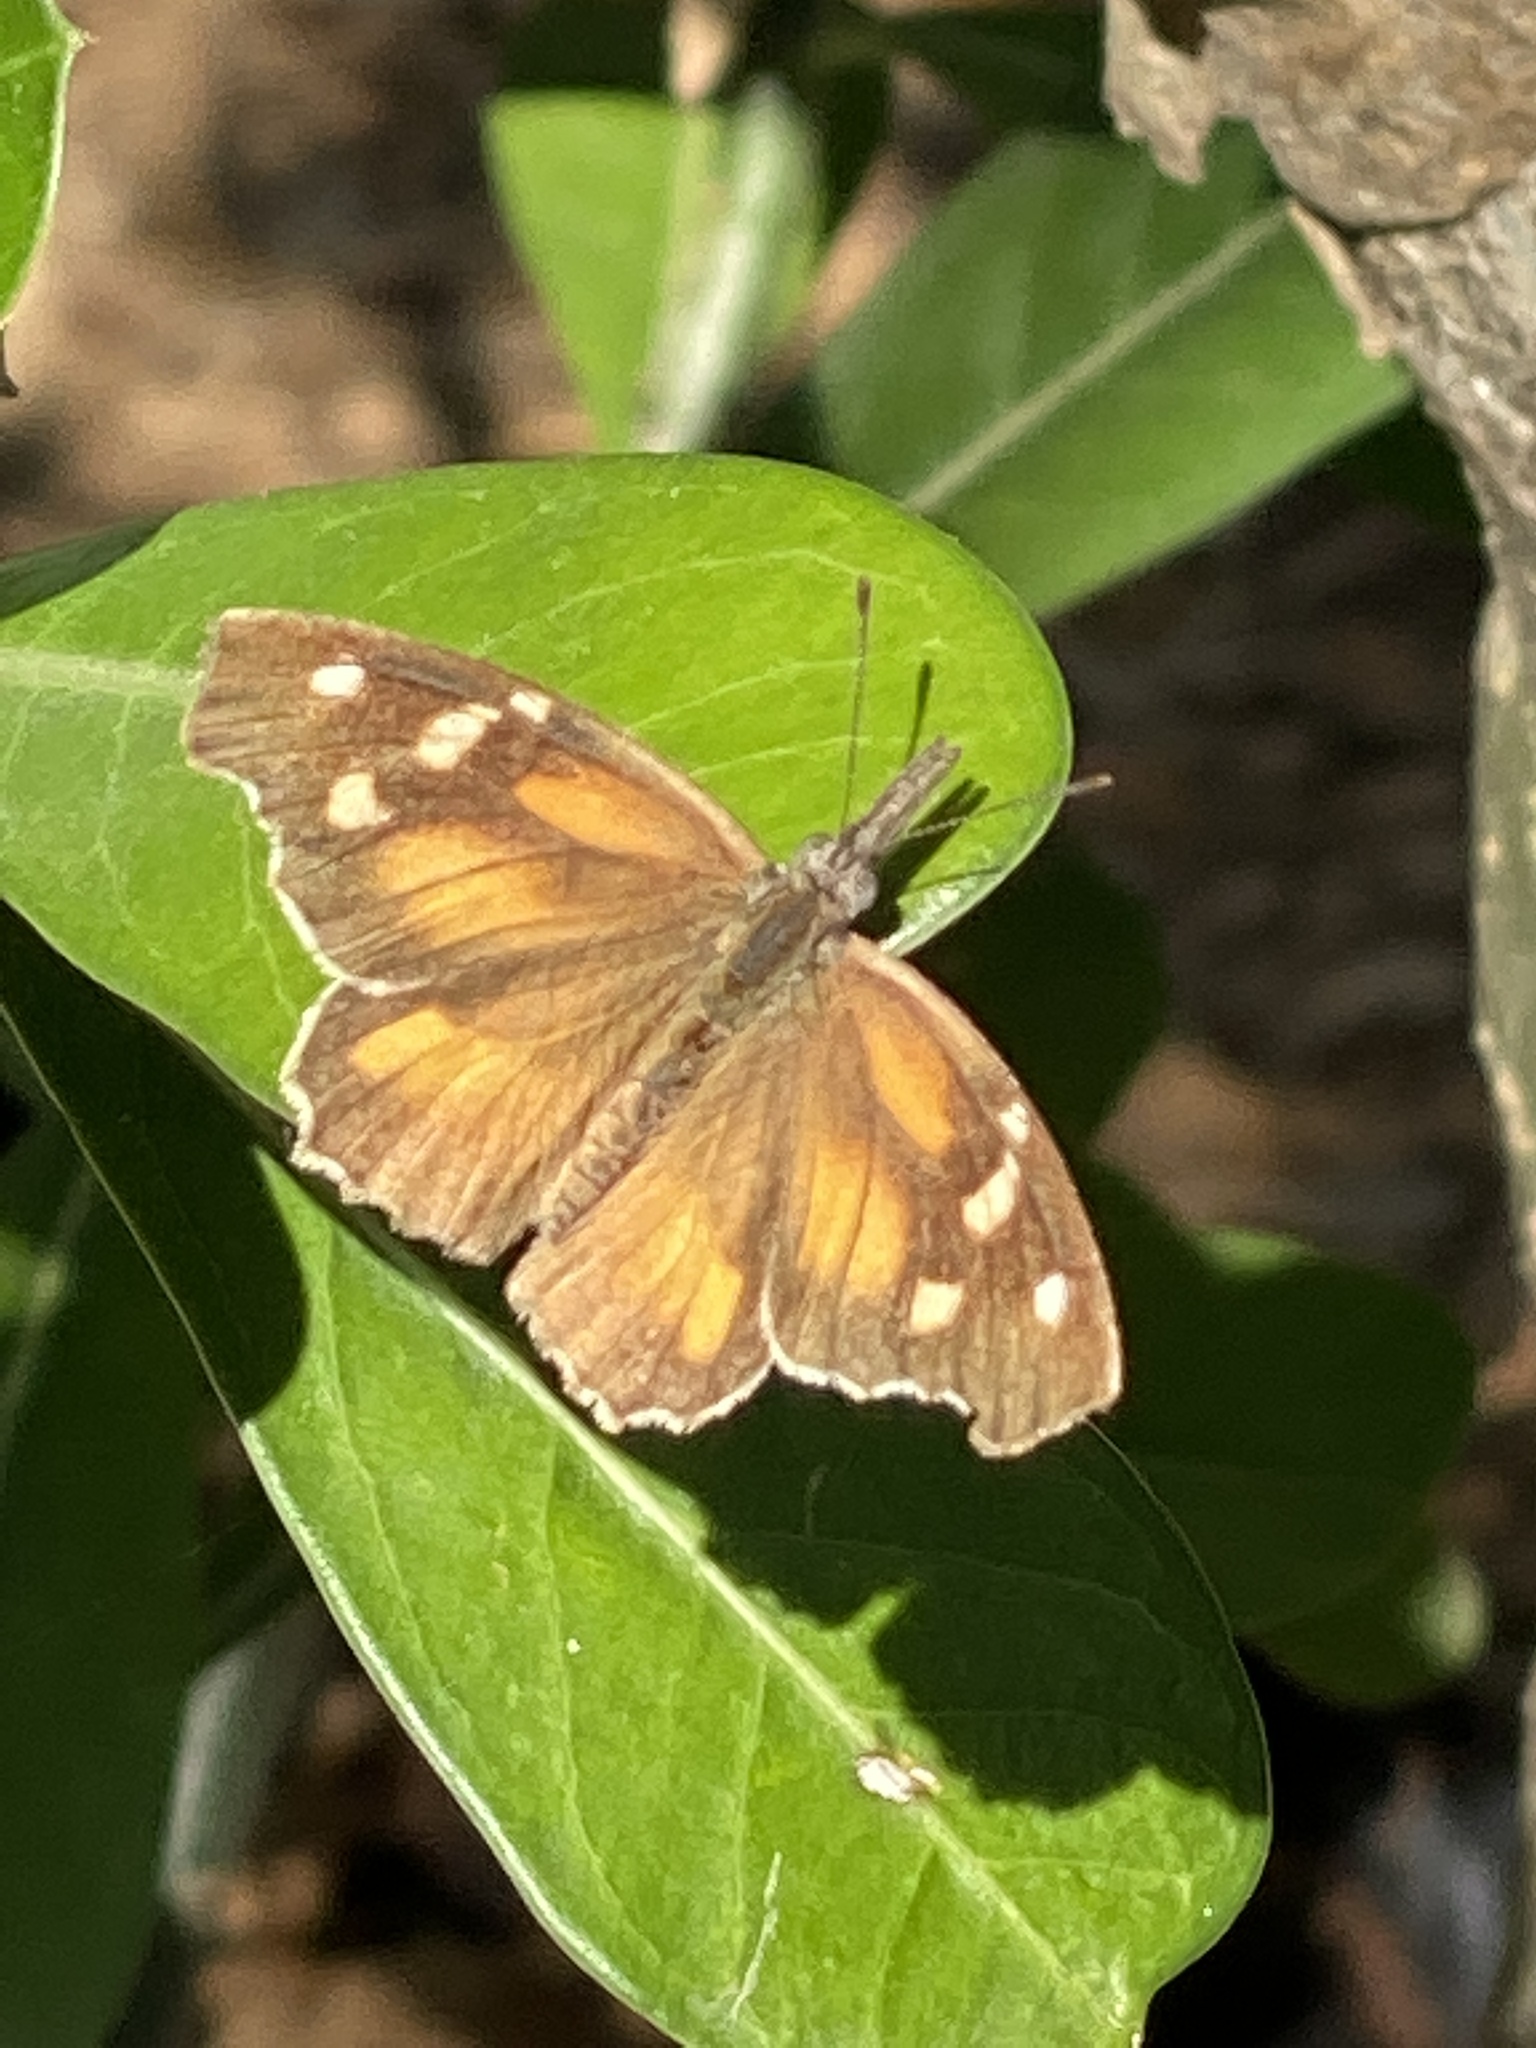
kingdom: Animalia
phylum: Arthropoda
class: Insecta
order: Lepidoptera
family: Nymphalidae
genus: Libytheana
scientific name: Libytheana carinenta
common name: American snout
